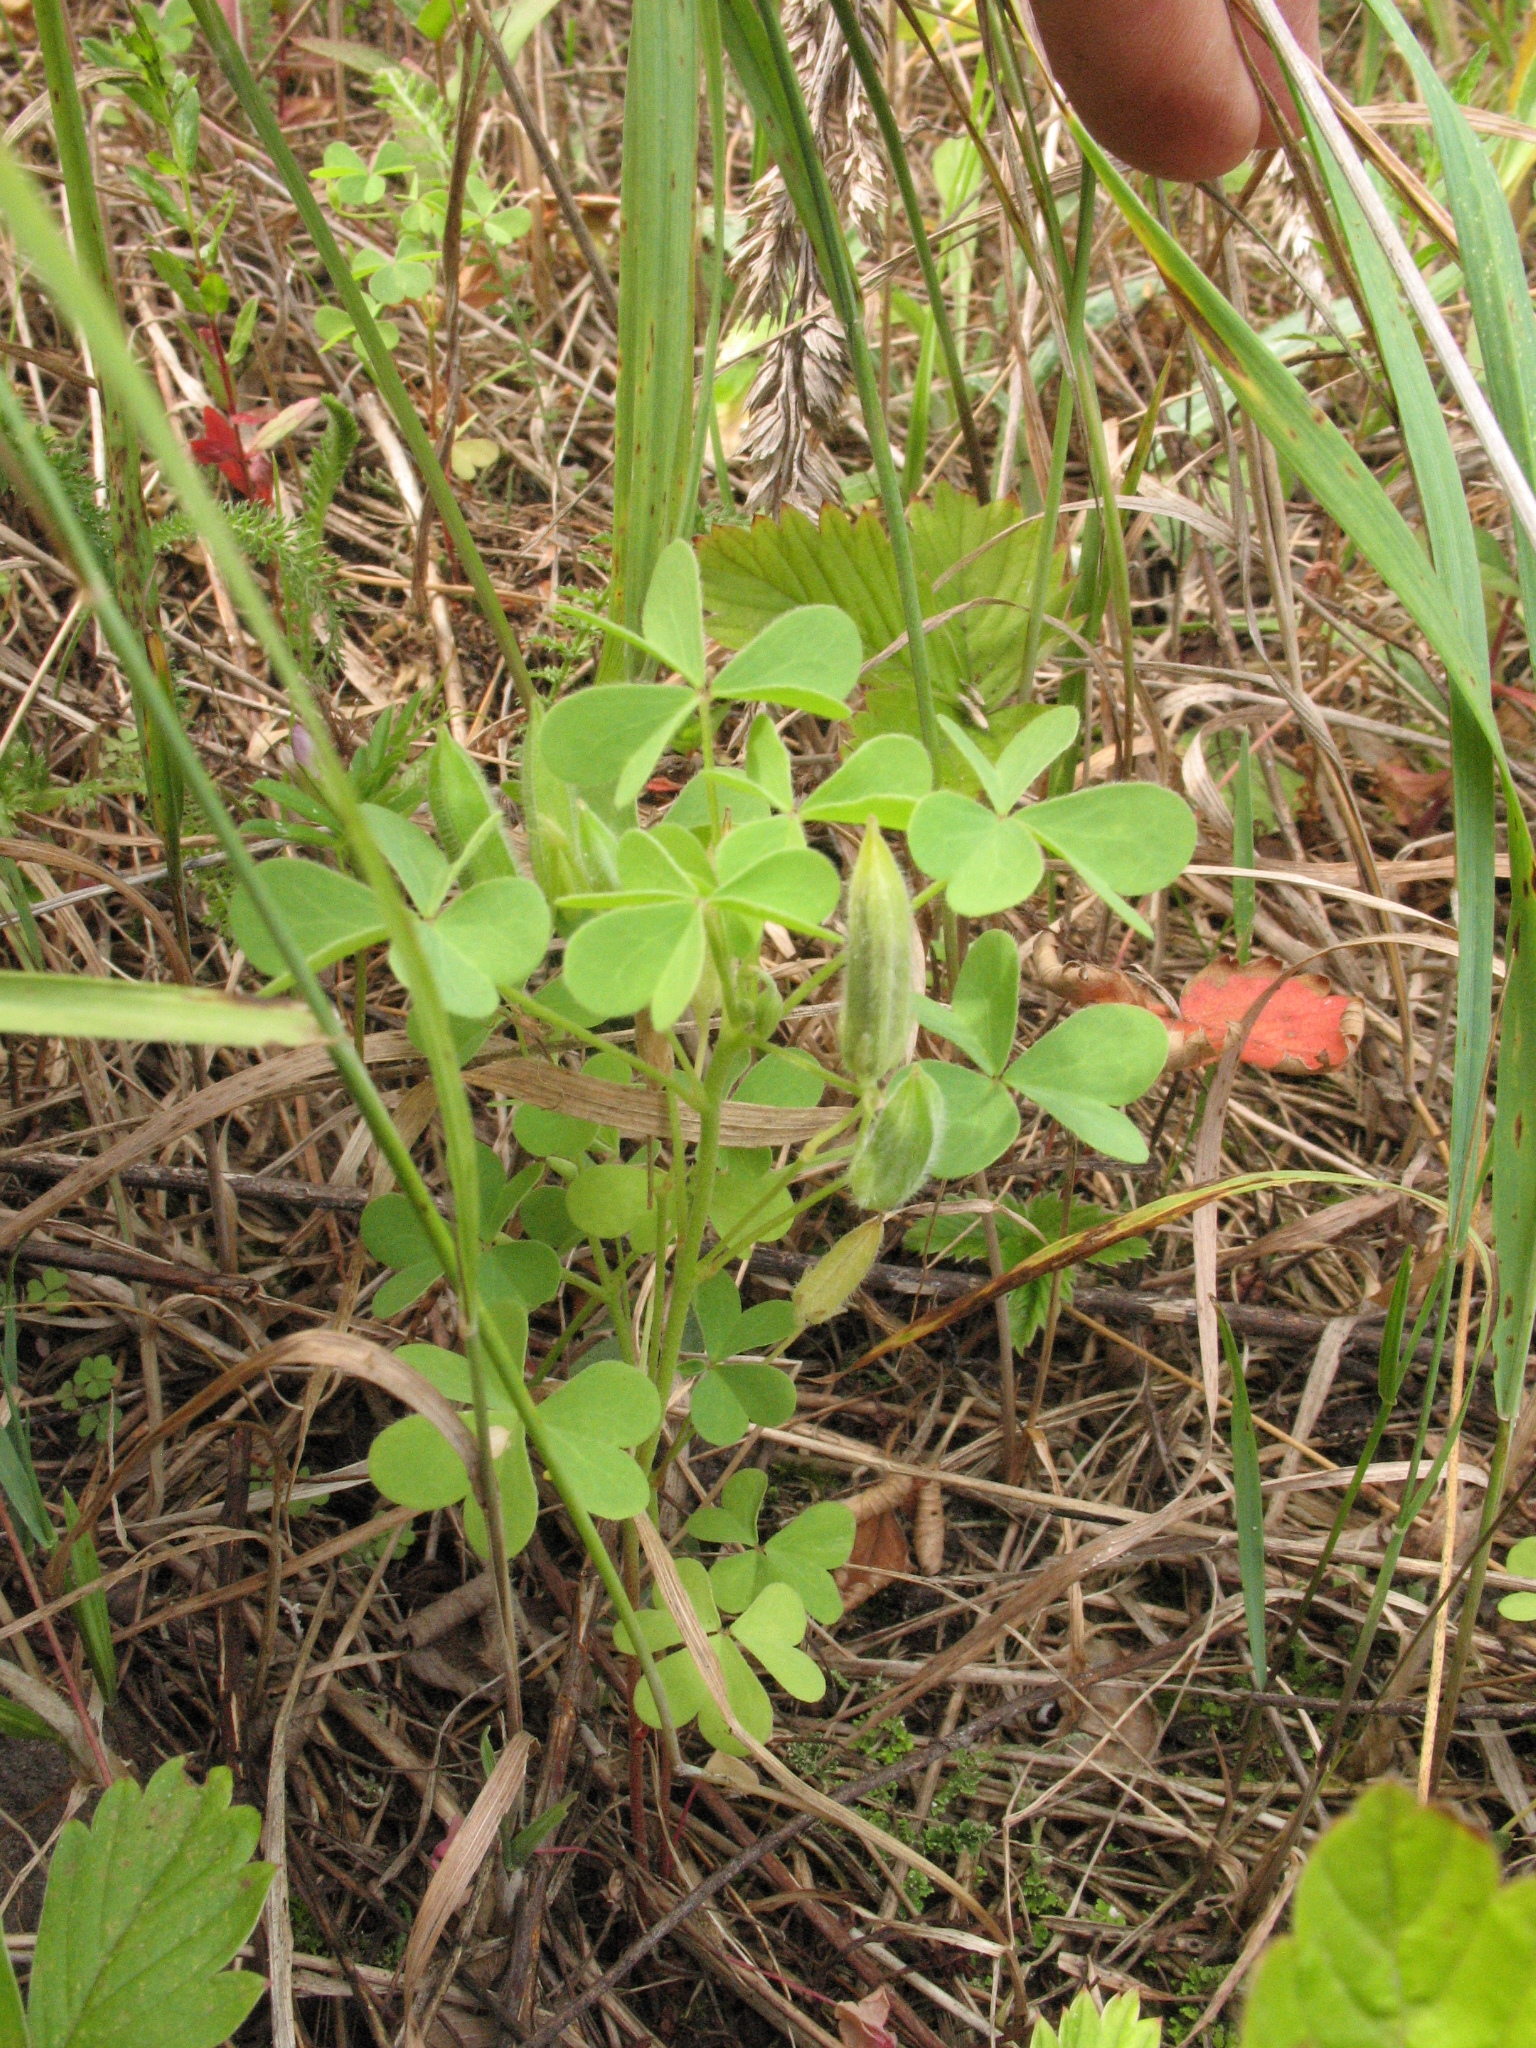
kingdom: Plantae
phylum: Tracheophyta
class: Magnoliopsida
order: Oxalidales
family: Oxalidaceae
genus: Oxalis
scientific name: Oxalis dillenii
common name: Sussex yellow-sorrel
